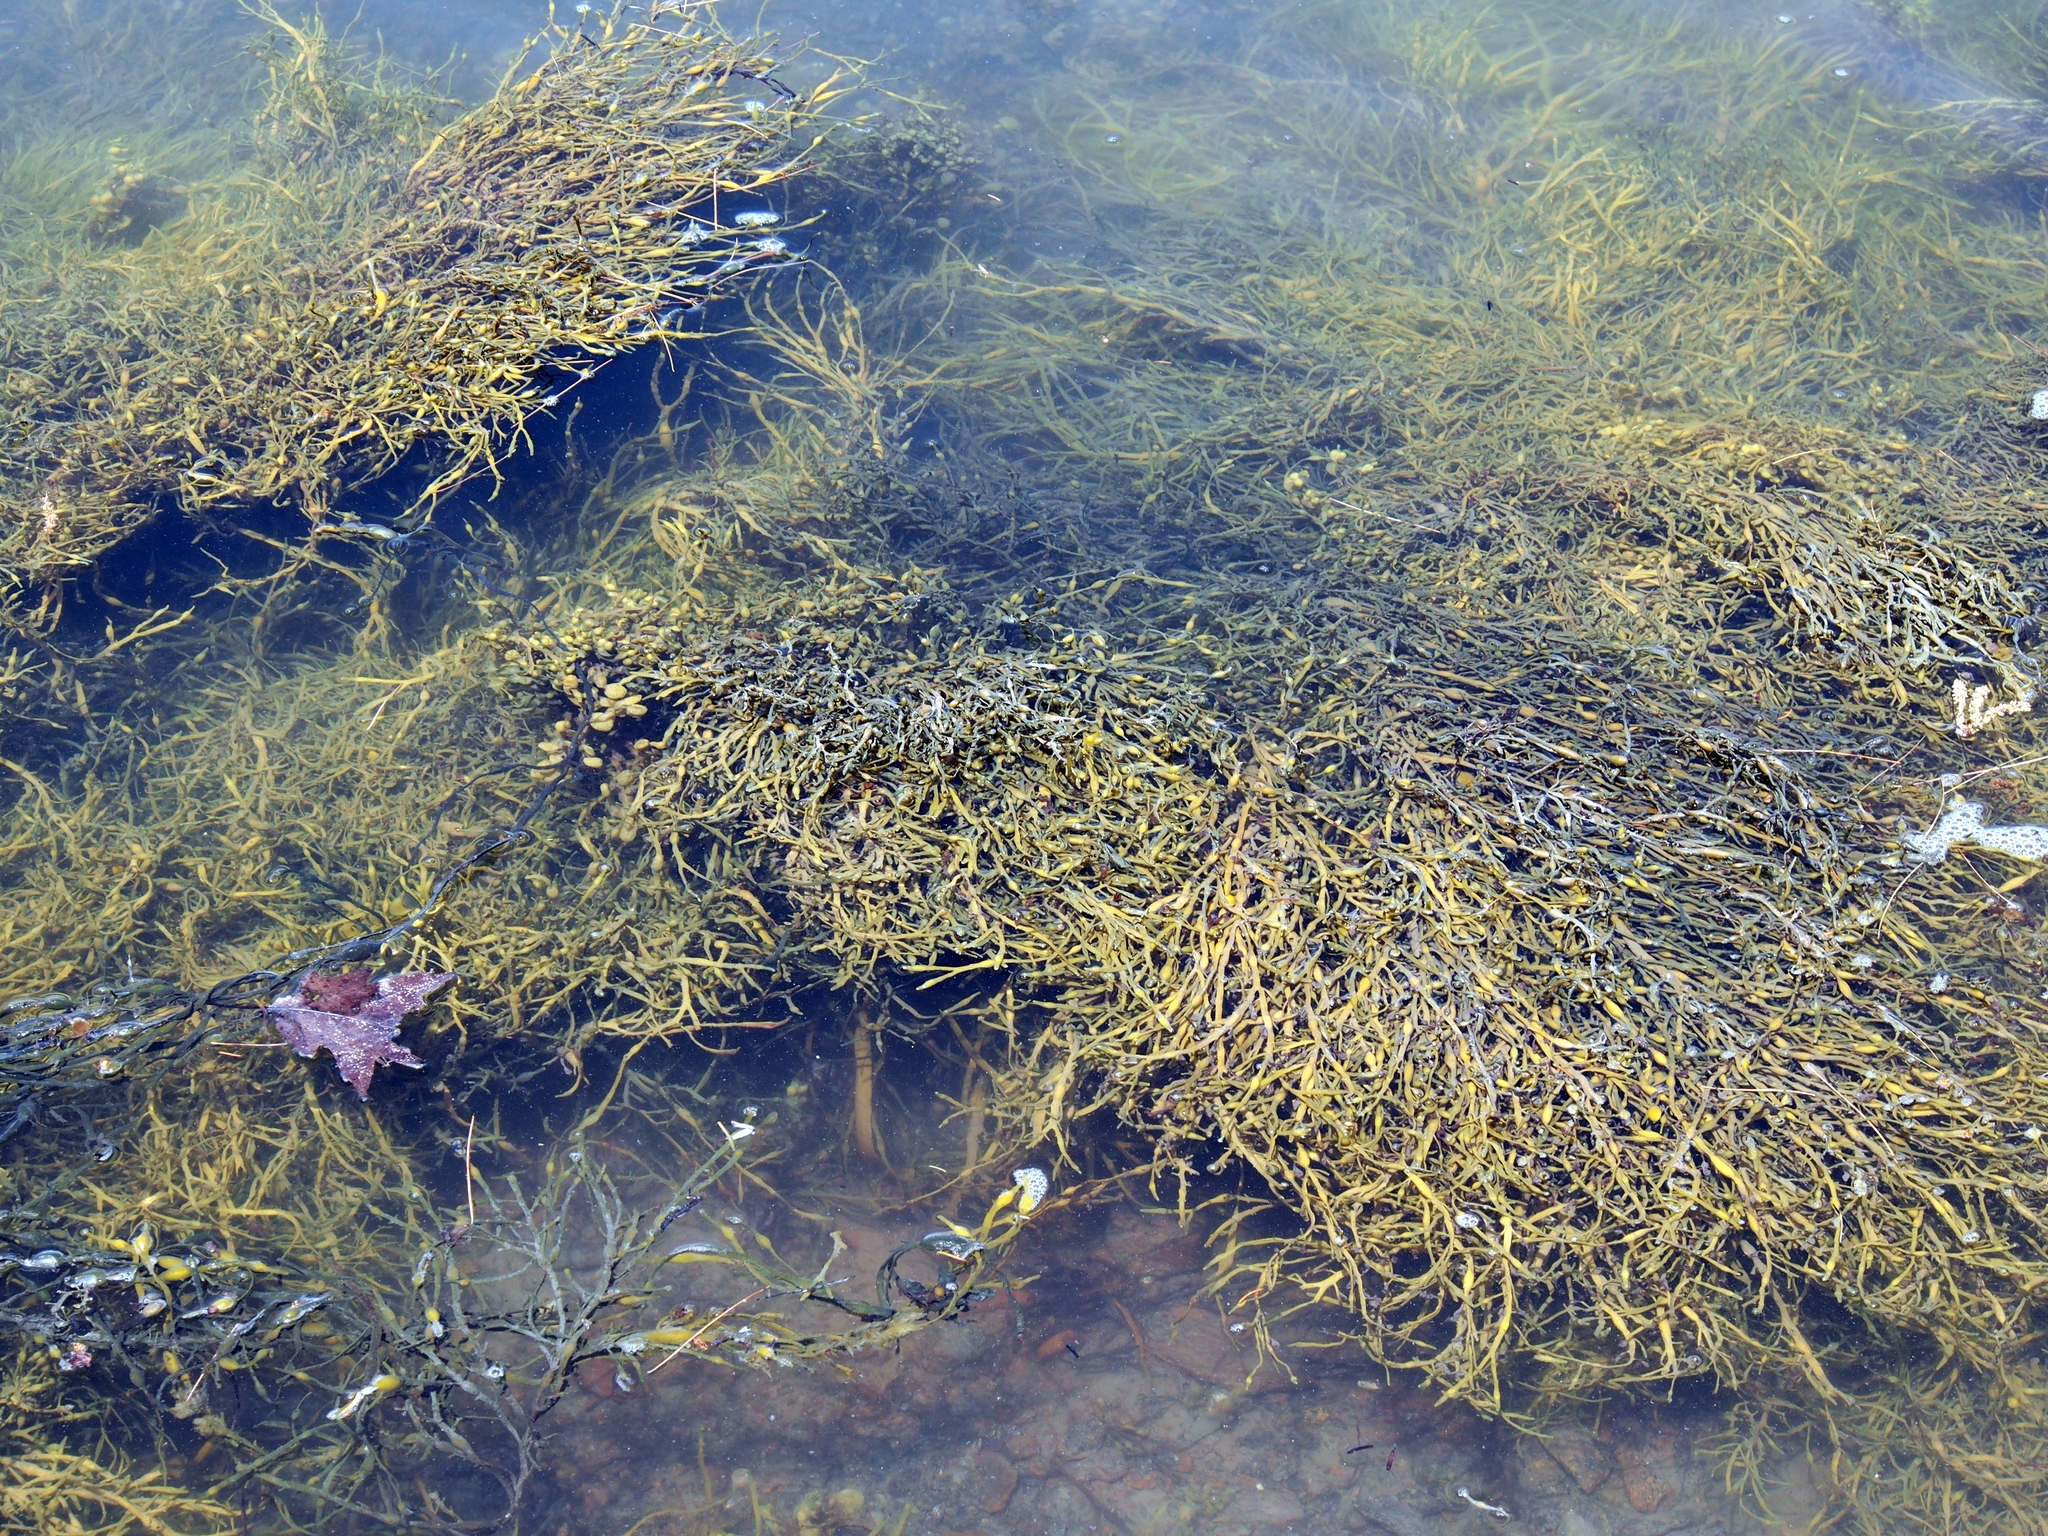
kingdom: Chromista
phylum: Ochrophyta
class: Phaeophyceae
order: Fucales
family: Fucaceae
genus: Ascophyllum
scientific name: Ascophyllum nodosum
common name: Knotted wrack
